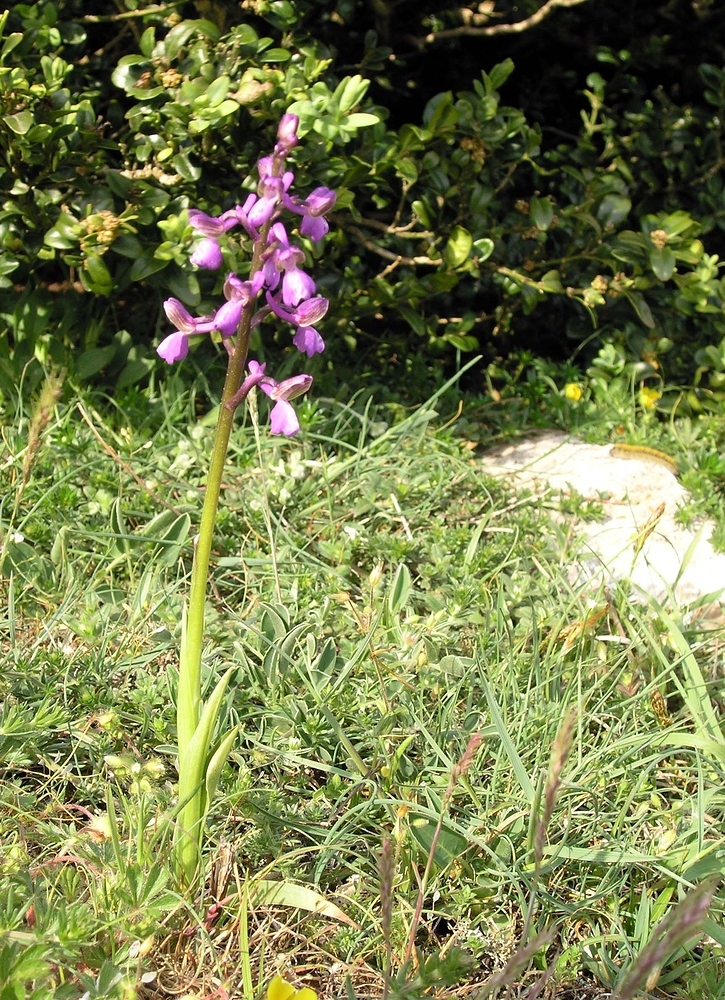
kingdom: Plantae
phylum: Tracheophyta
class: Liliopsida
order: Asparagales
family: Orchidaceae
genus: Anacamptis
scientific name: Anacamptis morio
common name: Green-winged orchid
